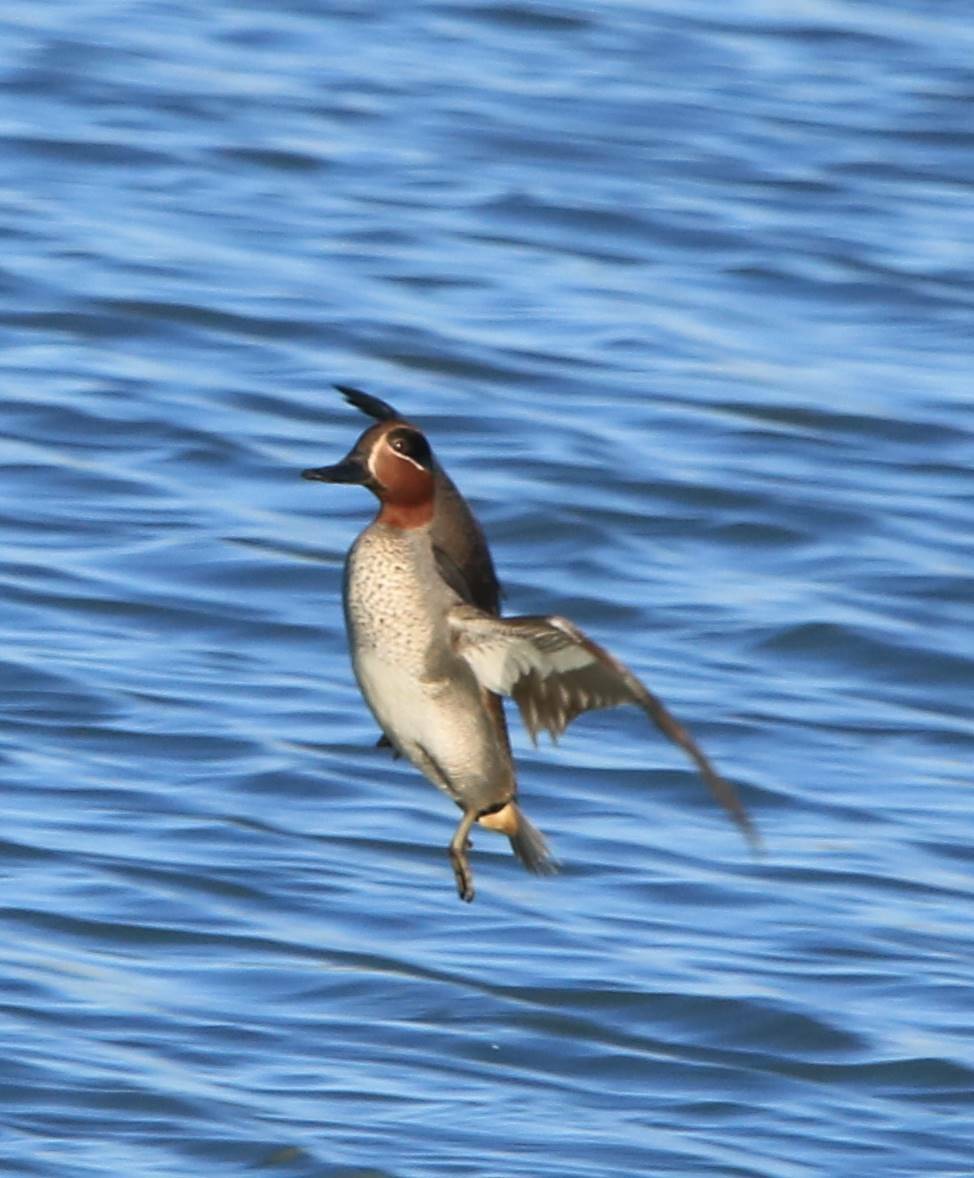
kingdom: Animalia
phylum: Chordata
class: Aves
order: Anseriformes
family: Anatidae
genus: Anas
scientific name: Anas crecca
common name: Eurasian teal
